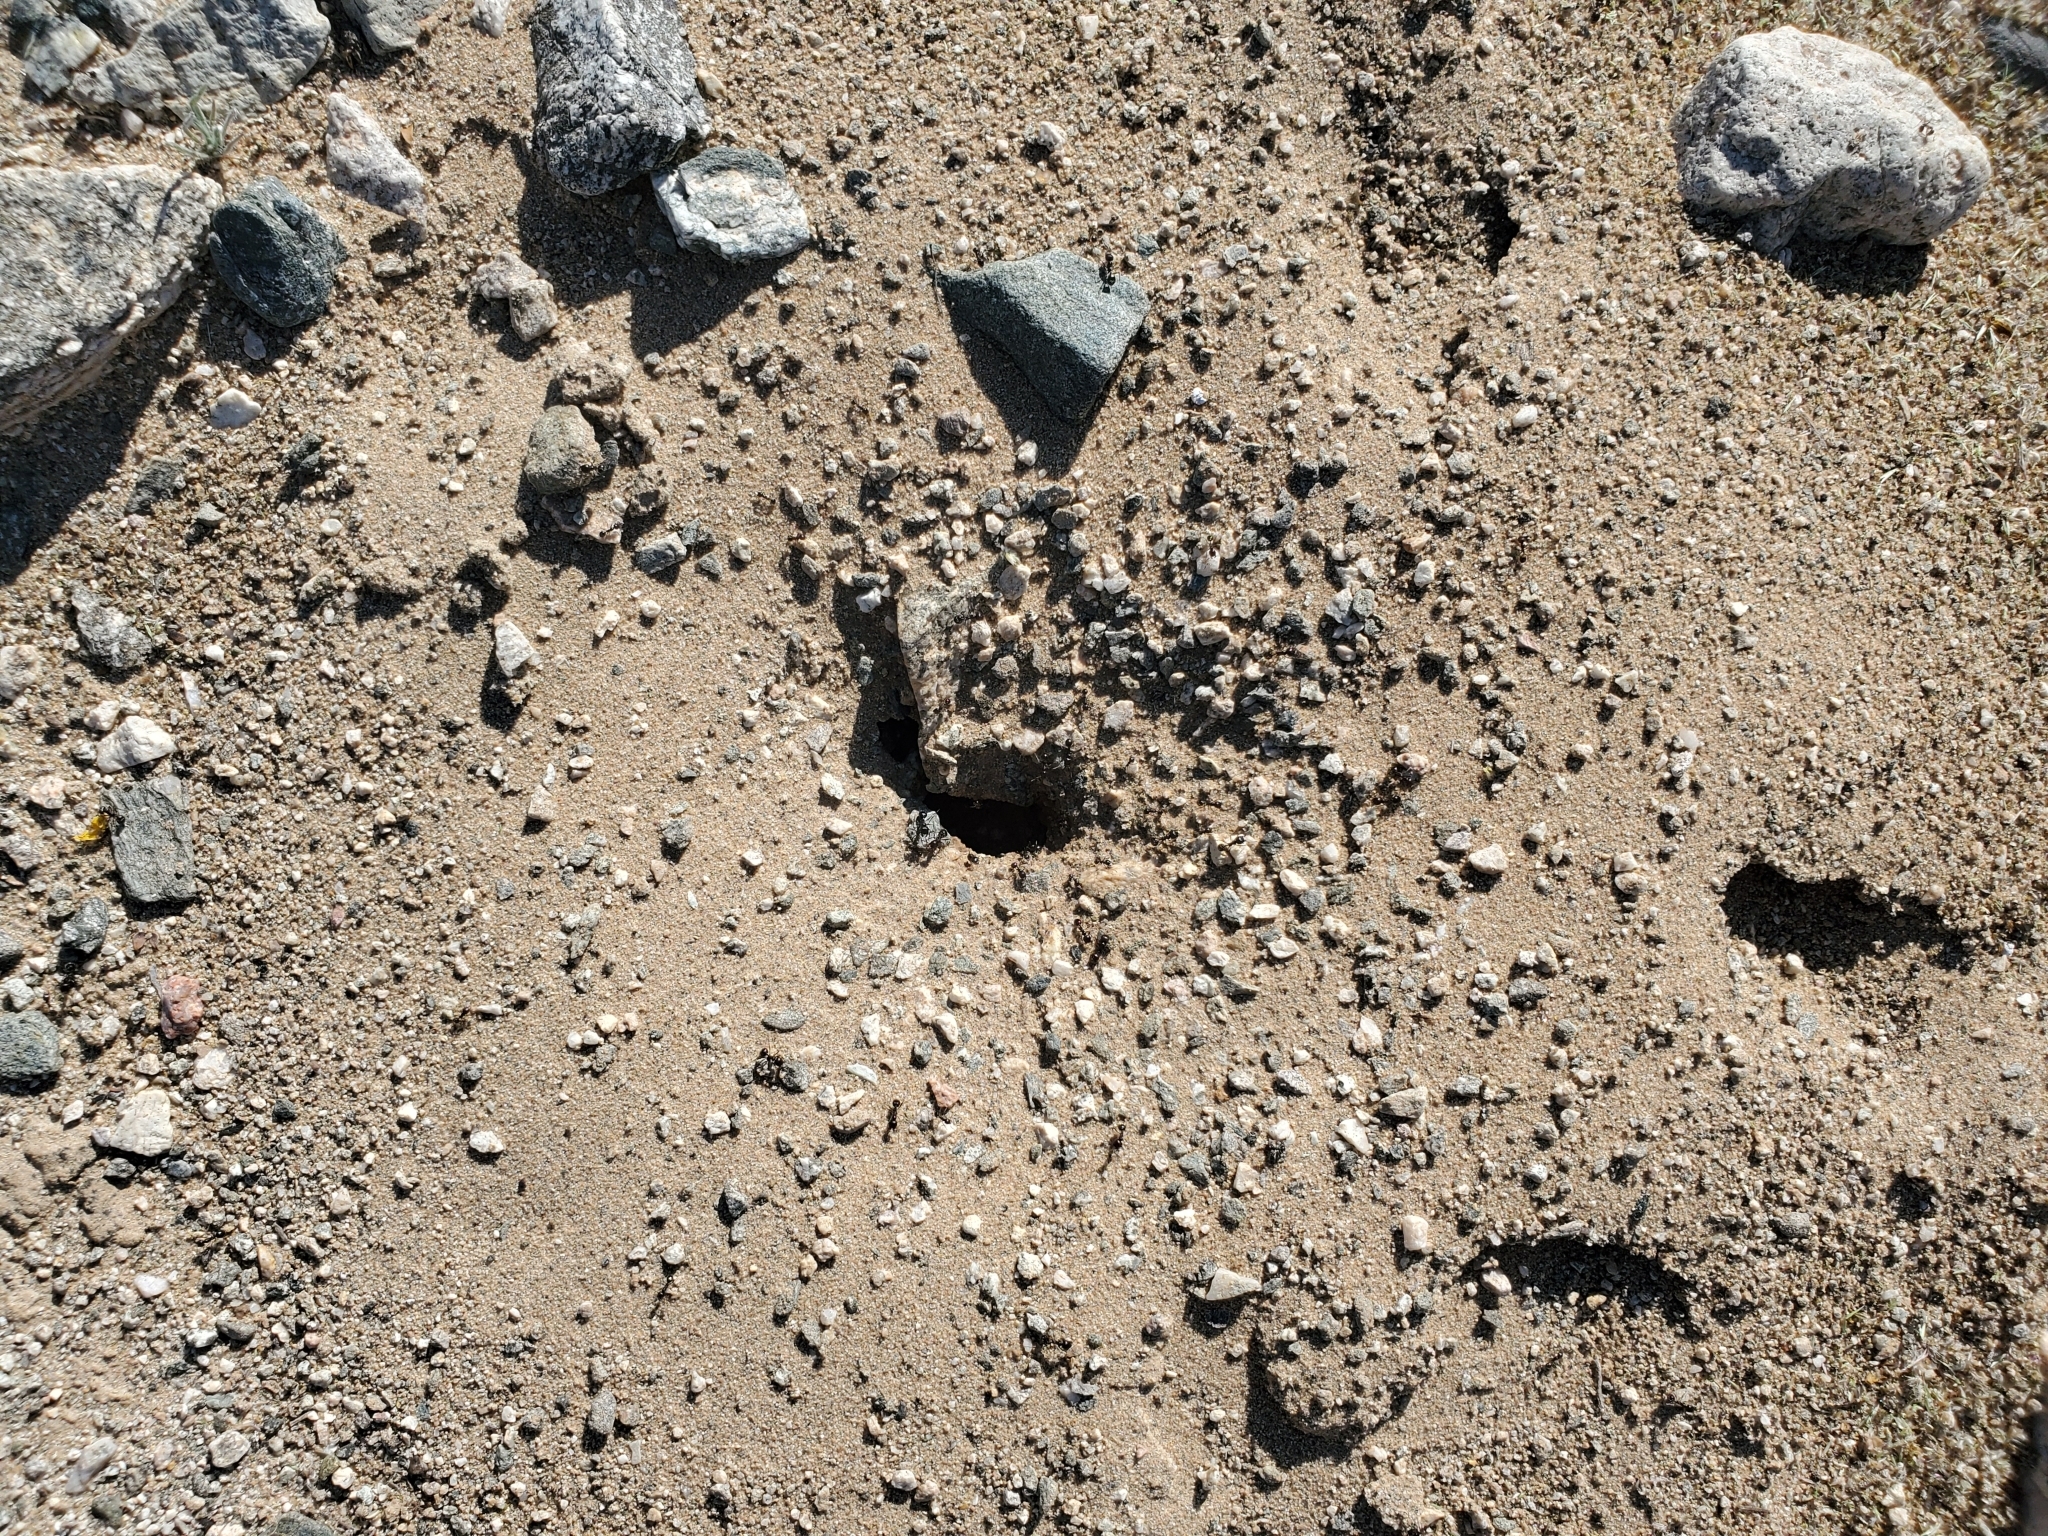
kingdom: Animalia
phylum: Arthropoda
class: Insecta
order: Hymenoptera
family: Formicidae
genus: Messor
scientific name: Messor pergandei
